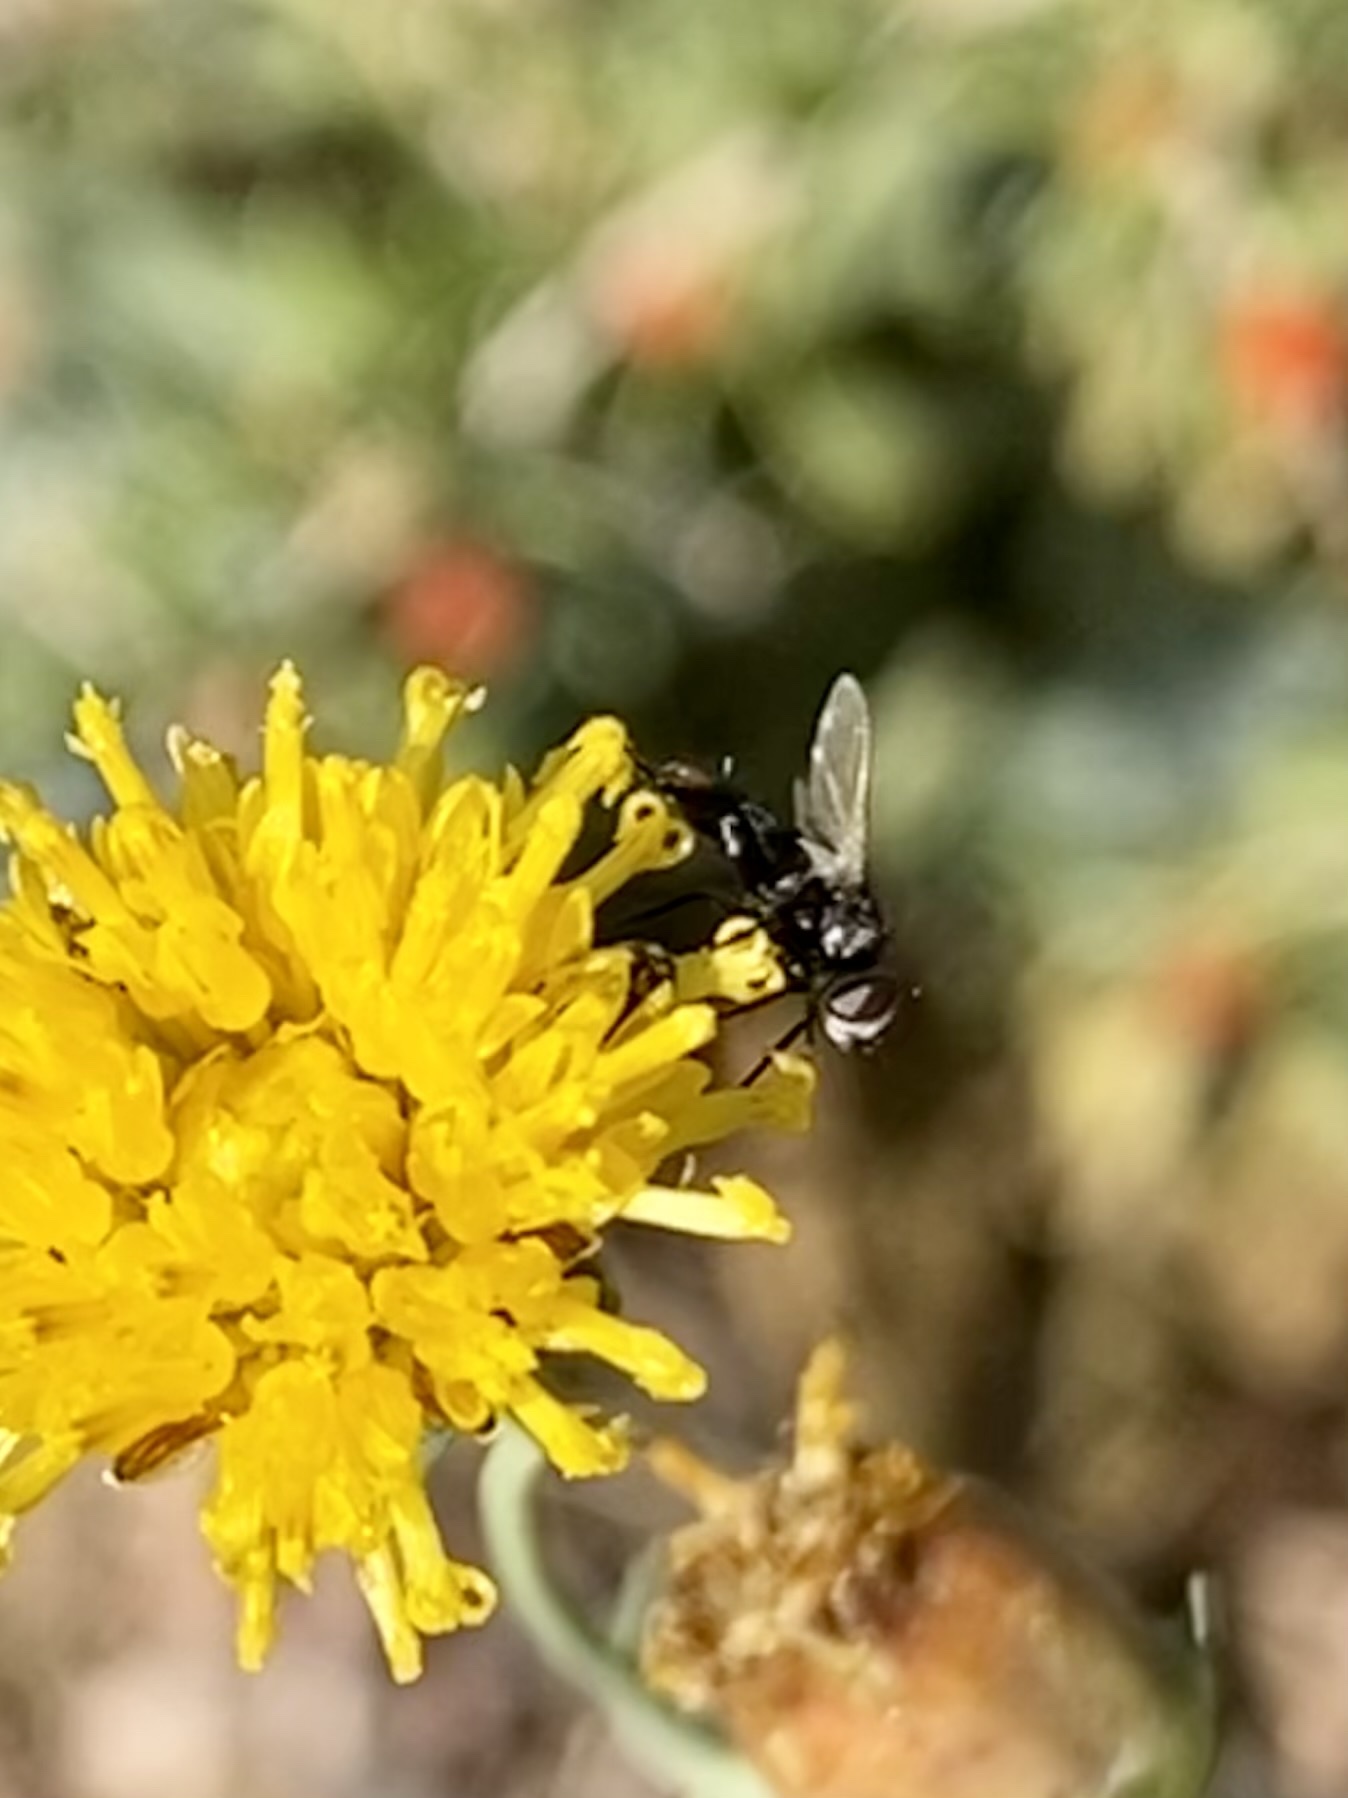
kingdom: Animalia
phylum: Arthropoda
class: Insecta
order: Diptera
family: Tachinidae
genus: Leucostoma
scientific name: Leucostoma
